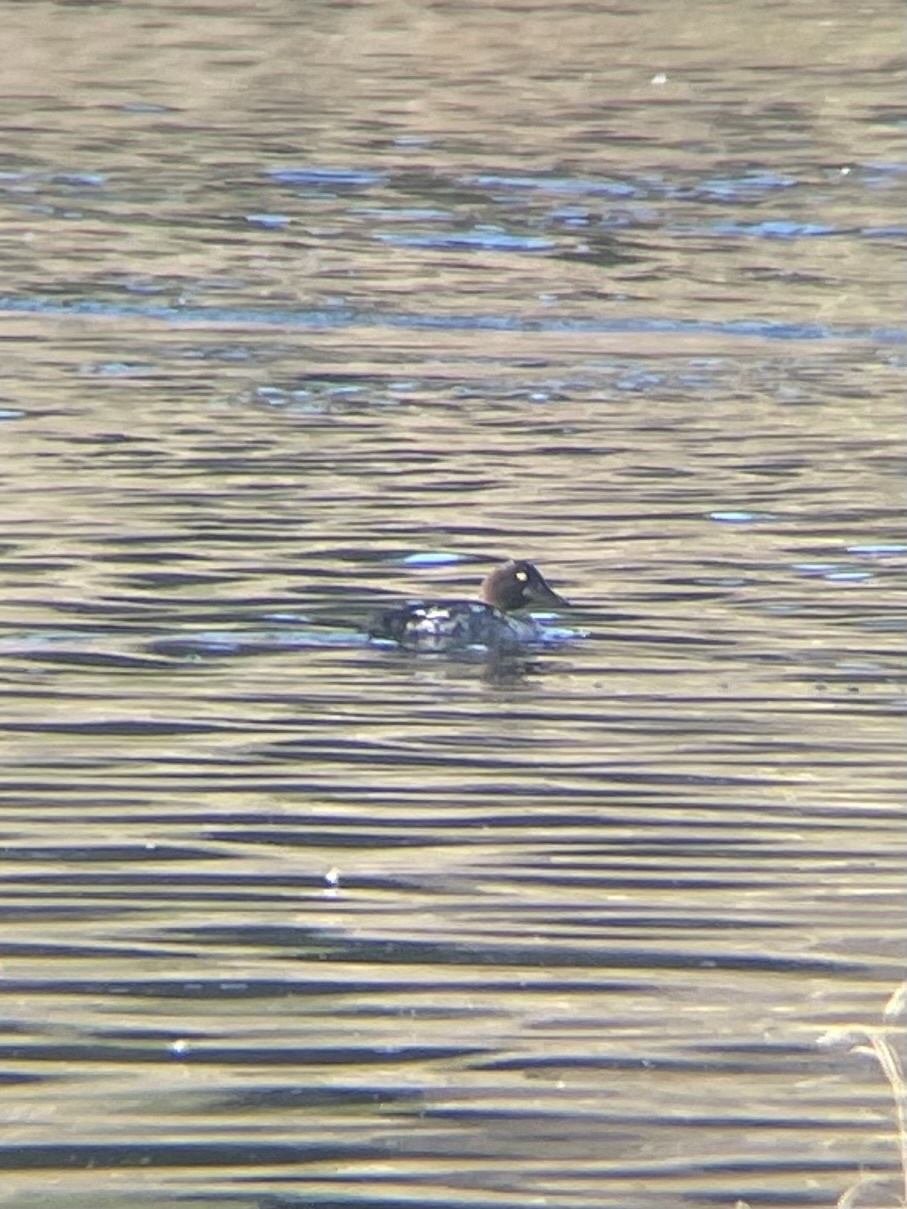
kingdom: Animalia
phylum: Chordata
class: Aves
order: Anseriformes
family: Anatidae
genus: Bucephala
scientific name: Bucephala clangula
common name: Common goldeneye
